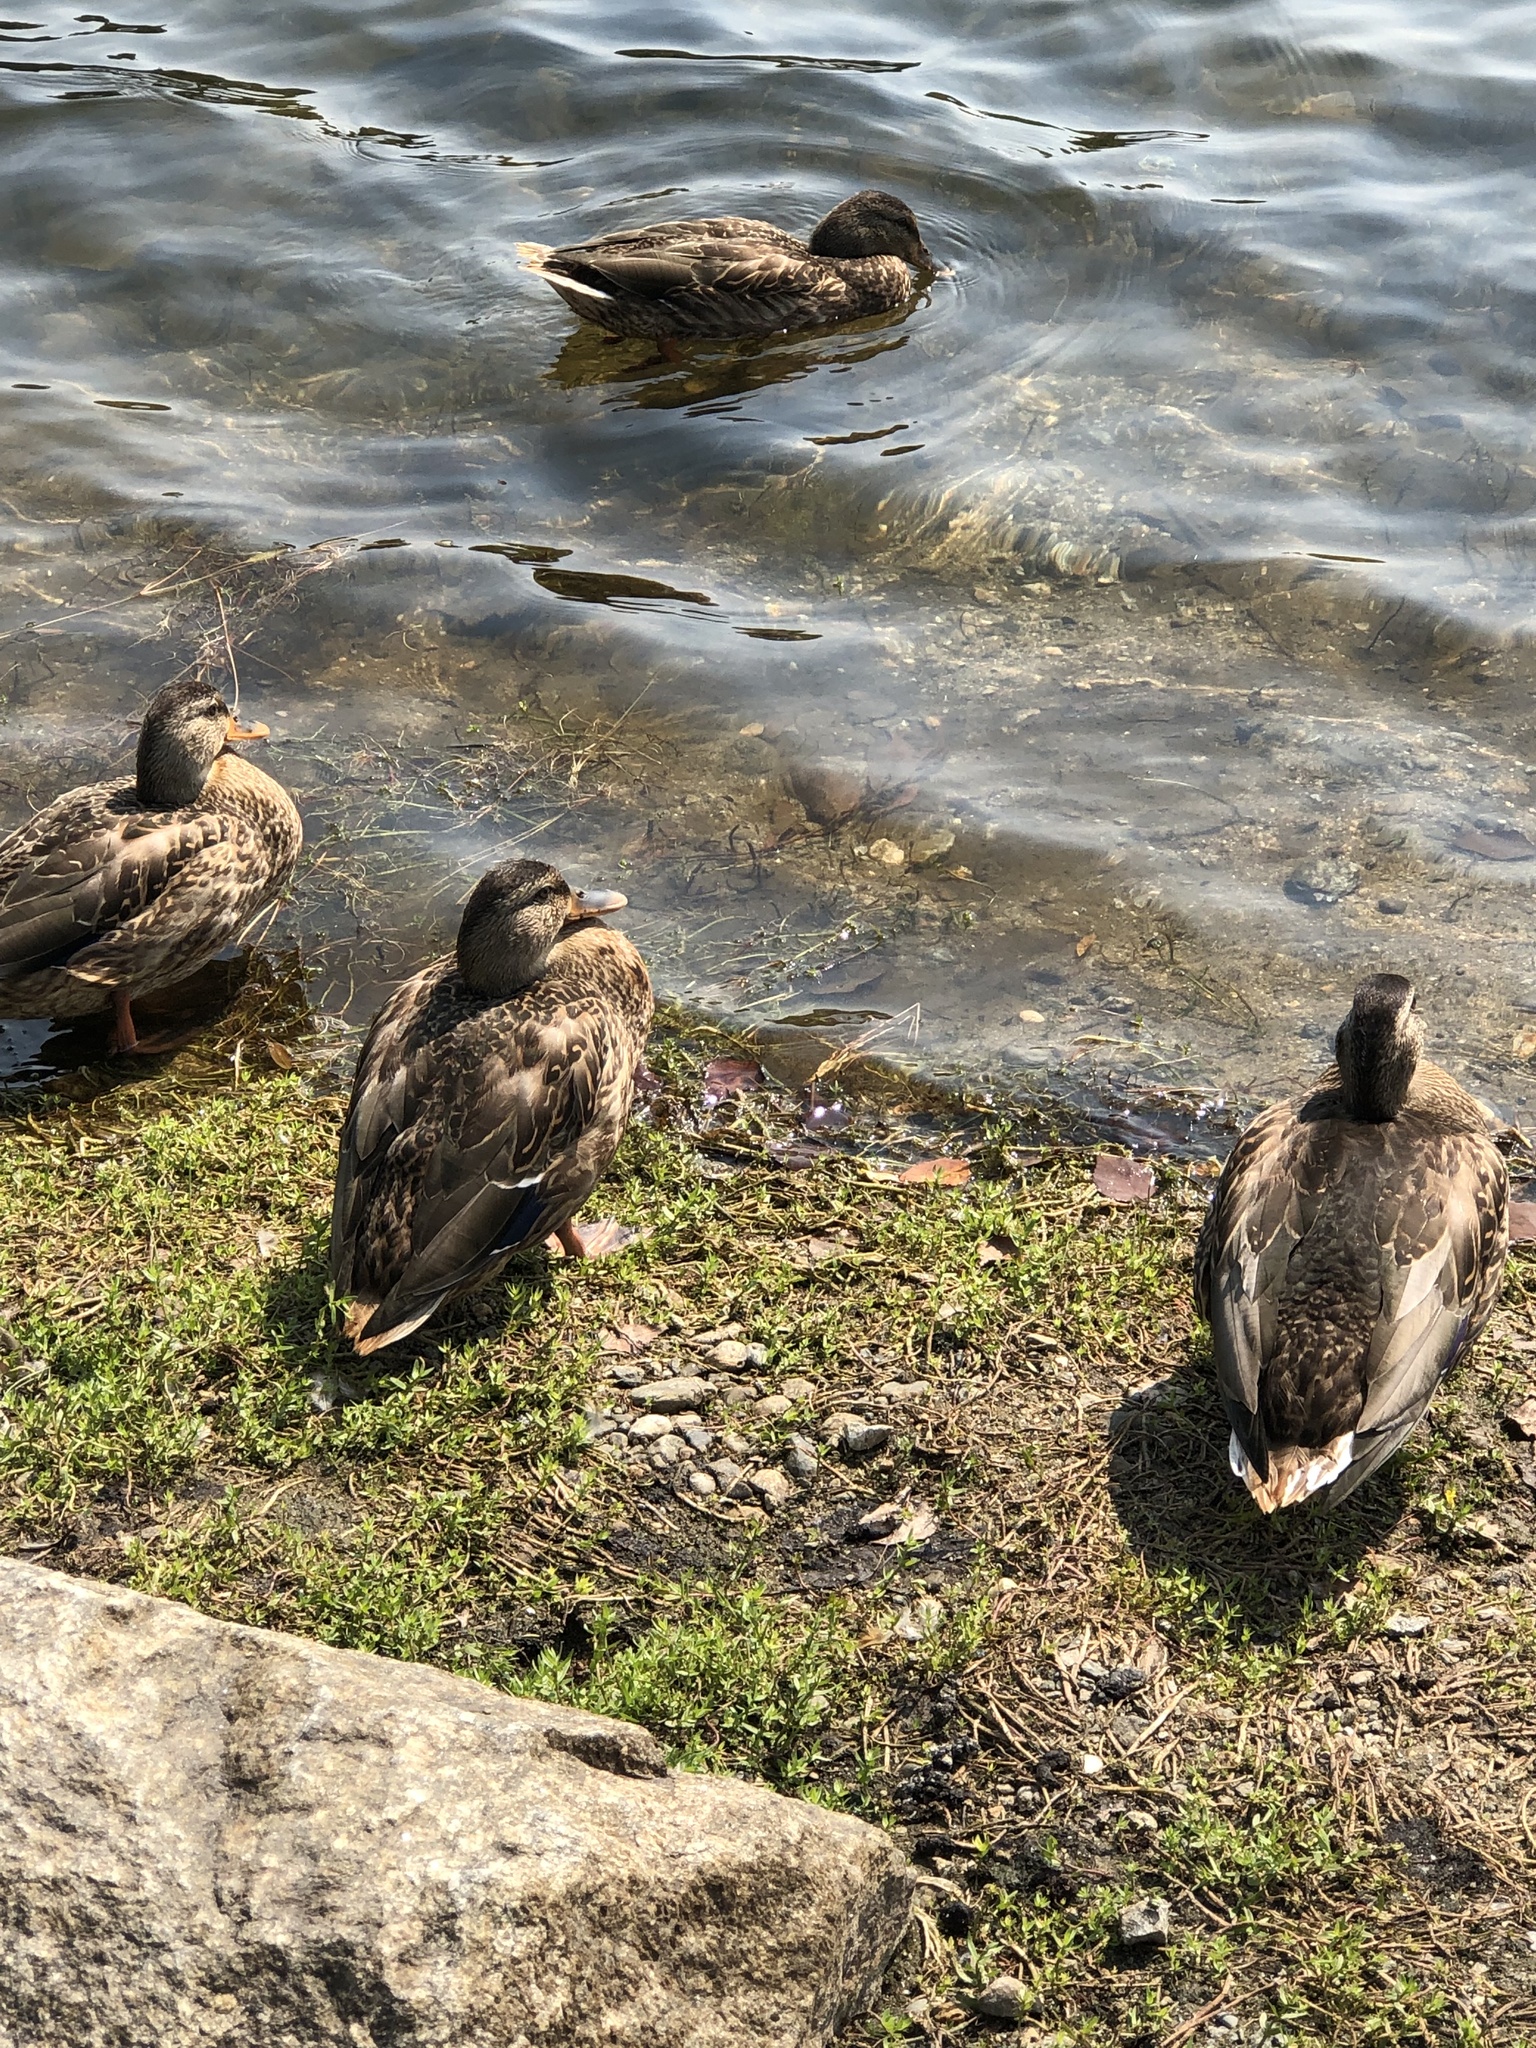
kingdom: Animalia
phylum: Chordata
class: Aves
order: Anseriformes
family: Anatidae
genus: Anas
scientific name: Anas platyrhynchos
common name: Mallard
